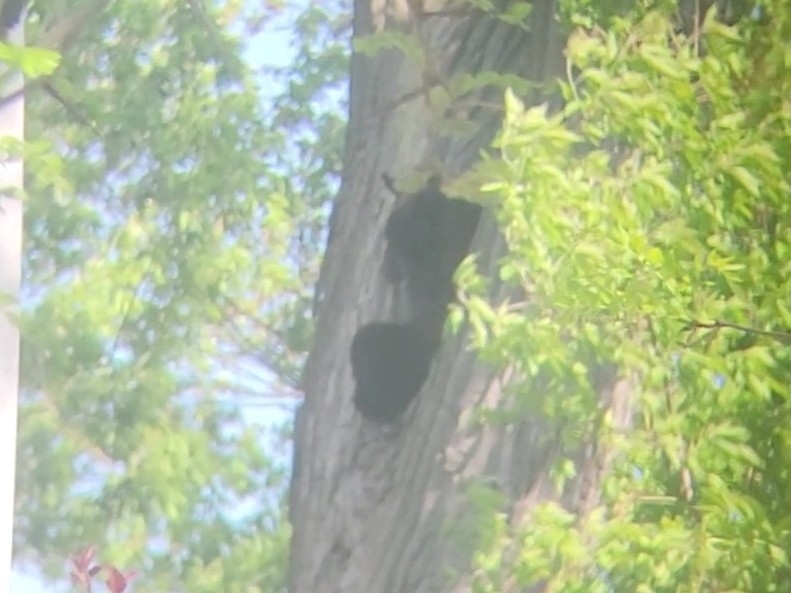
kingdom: Animalia
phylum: Chordata
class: Mammalia
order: Carnivora
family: Ursidae
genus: Ursus
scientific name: Ursus americanus
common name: American black bear
